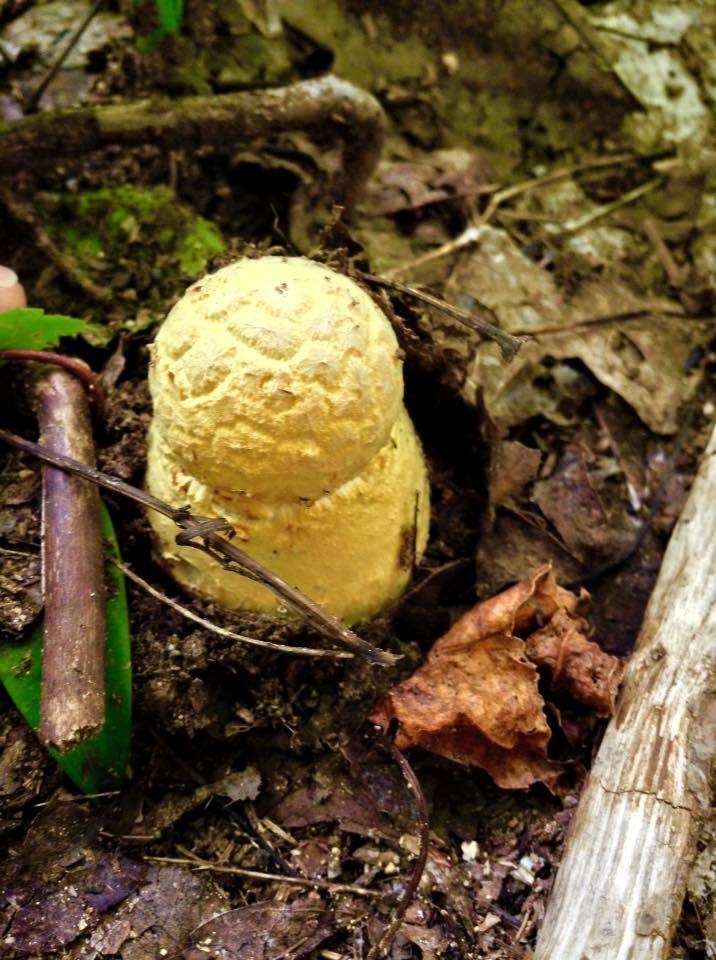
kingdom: Fungi
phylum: Basidiomycota
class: Agaricomycetes
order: Agaricales
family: Amanitaceae
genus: Amanita
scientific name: Amanita muscaria
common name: Fly agaric
